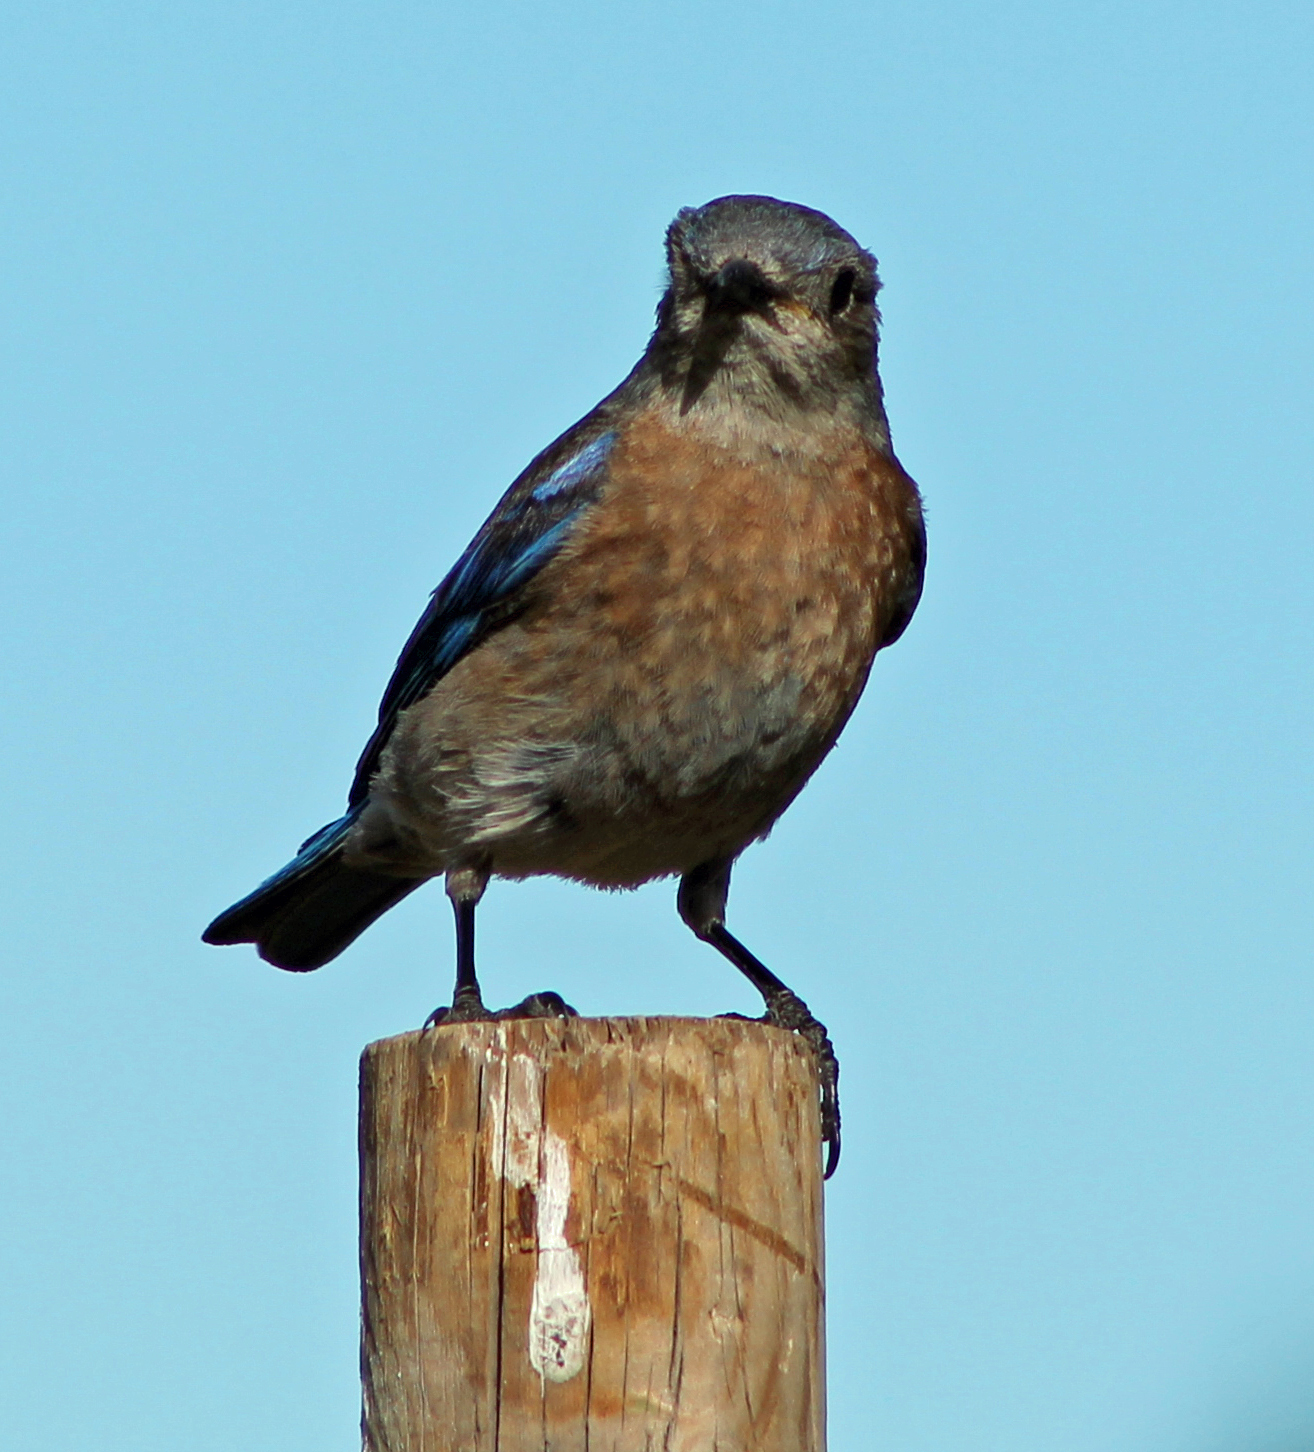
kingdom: Animalia
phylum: Chordata
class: Aves
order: Passeriformes
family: Turdidae
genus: Sialia
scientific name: Sialia mexicana
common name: Western bluebird
